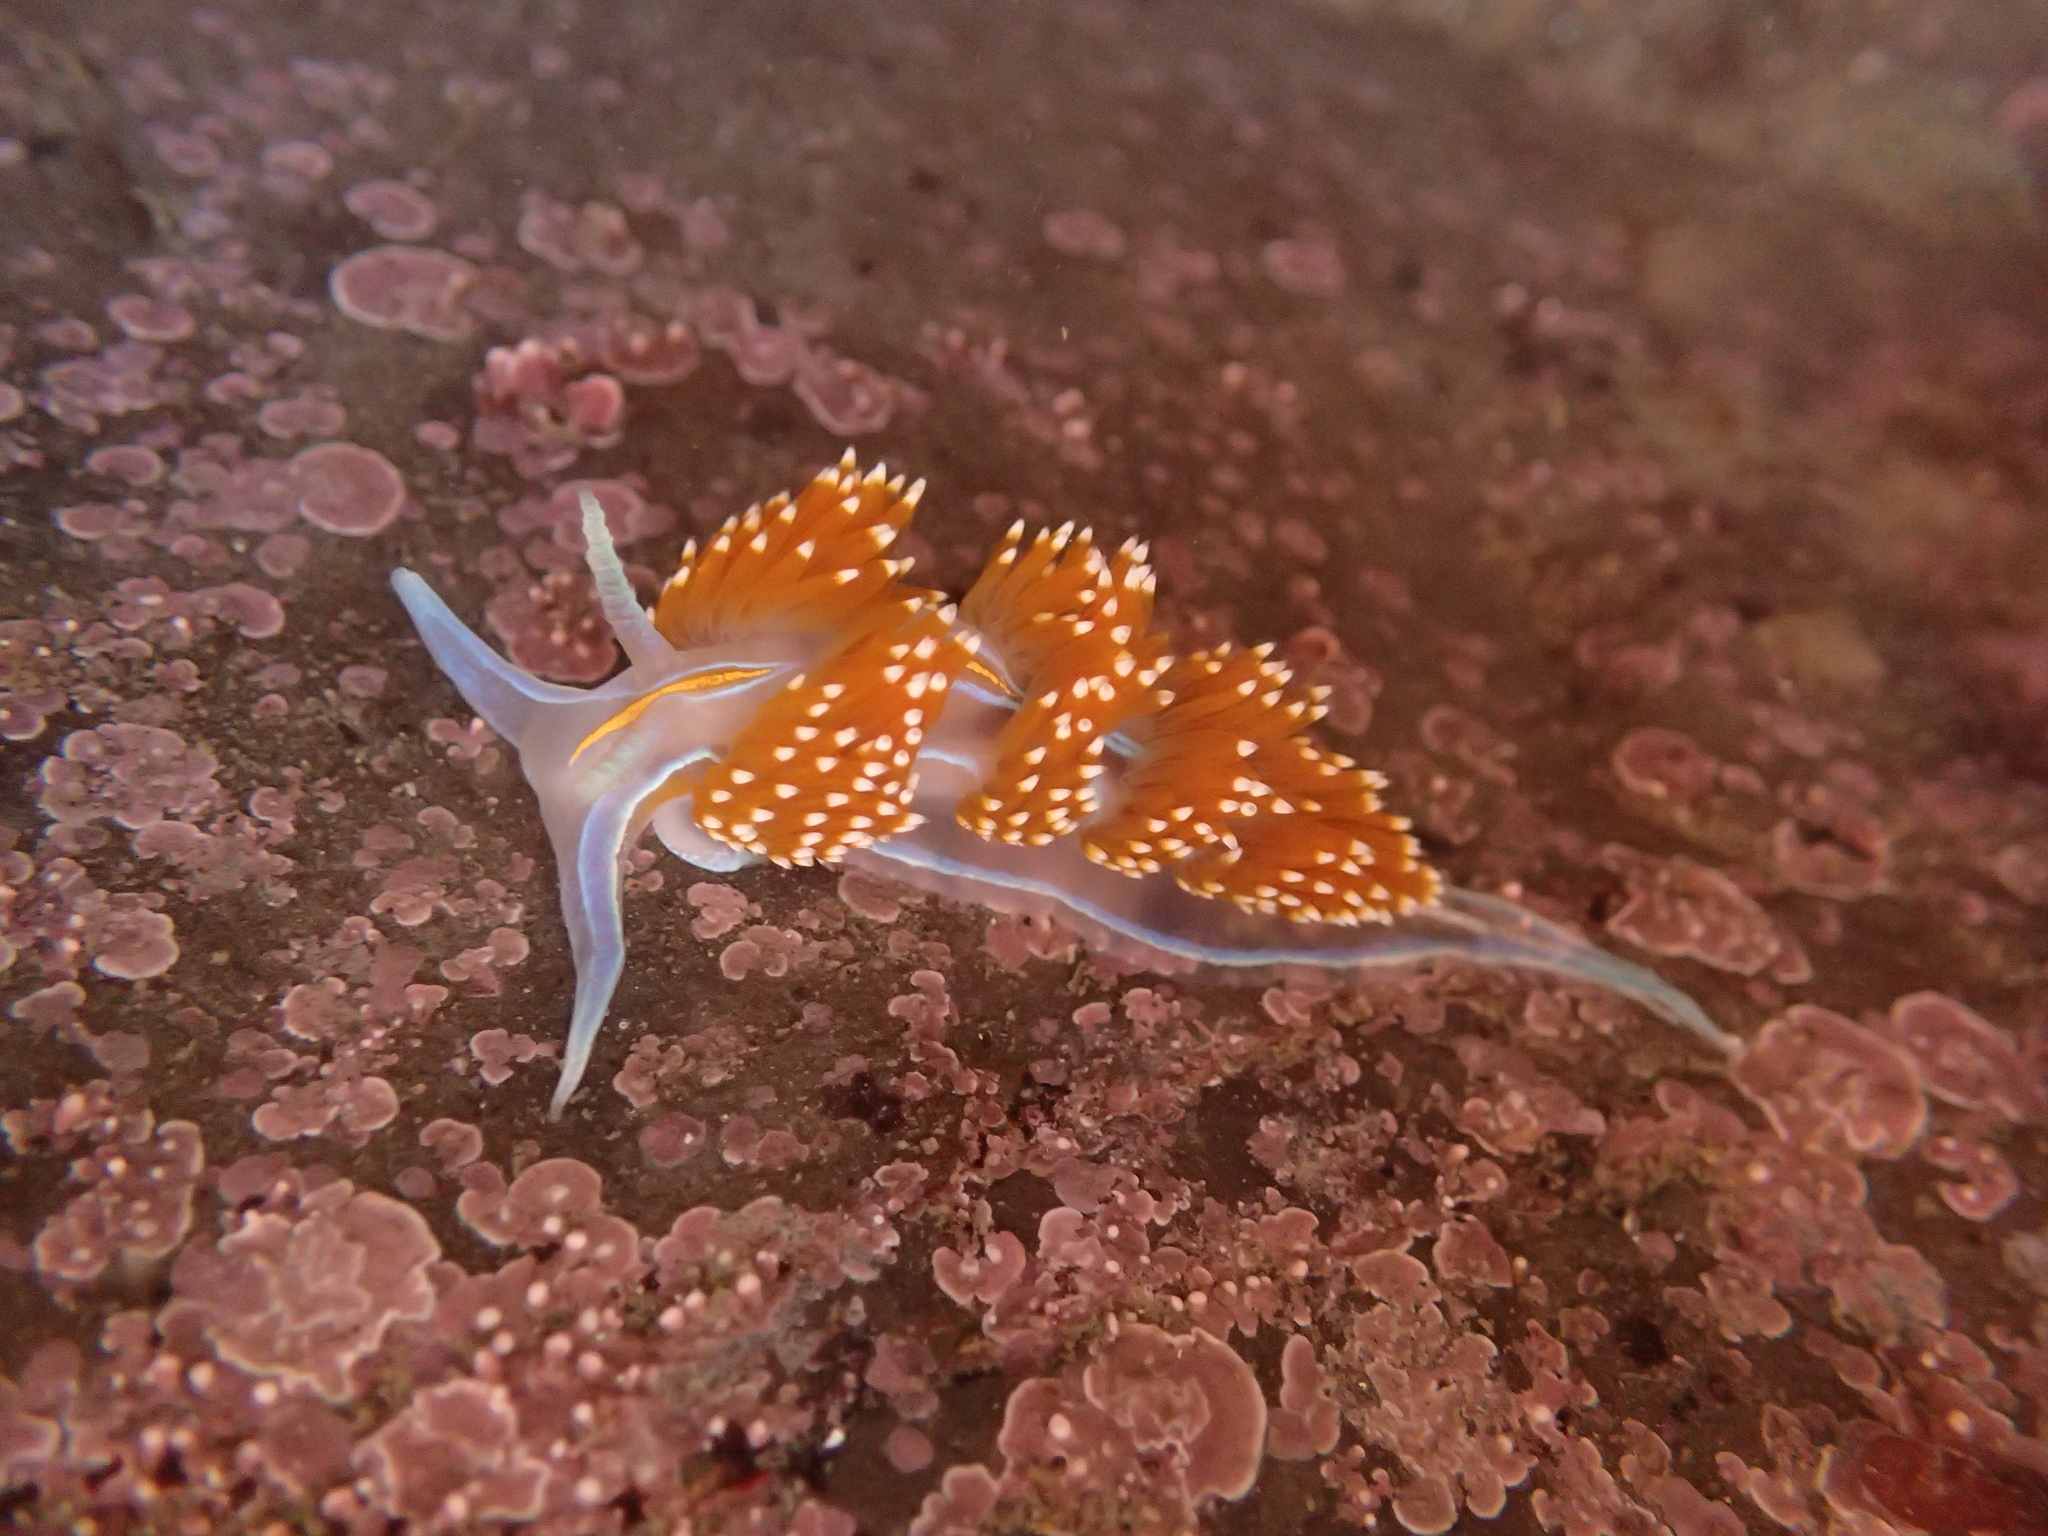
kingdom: Animalia
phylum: Mollusca
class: Gastropoda
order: Nudibranchia
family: Myrrhinidae
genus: Hermissenda
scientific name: Hermissenda opalescens
